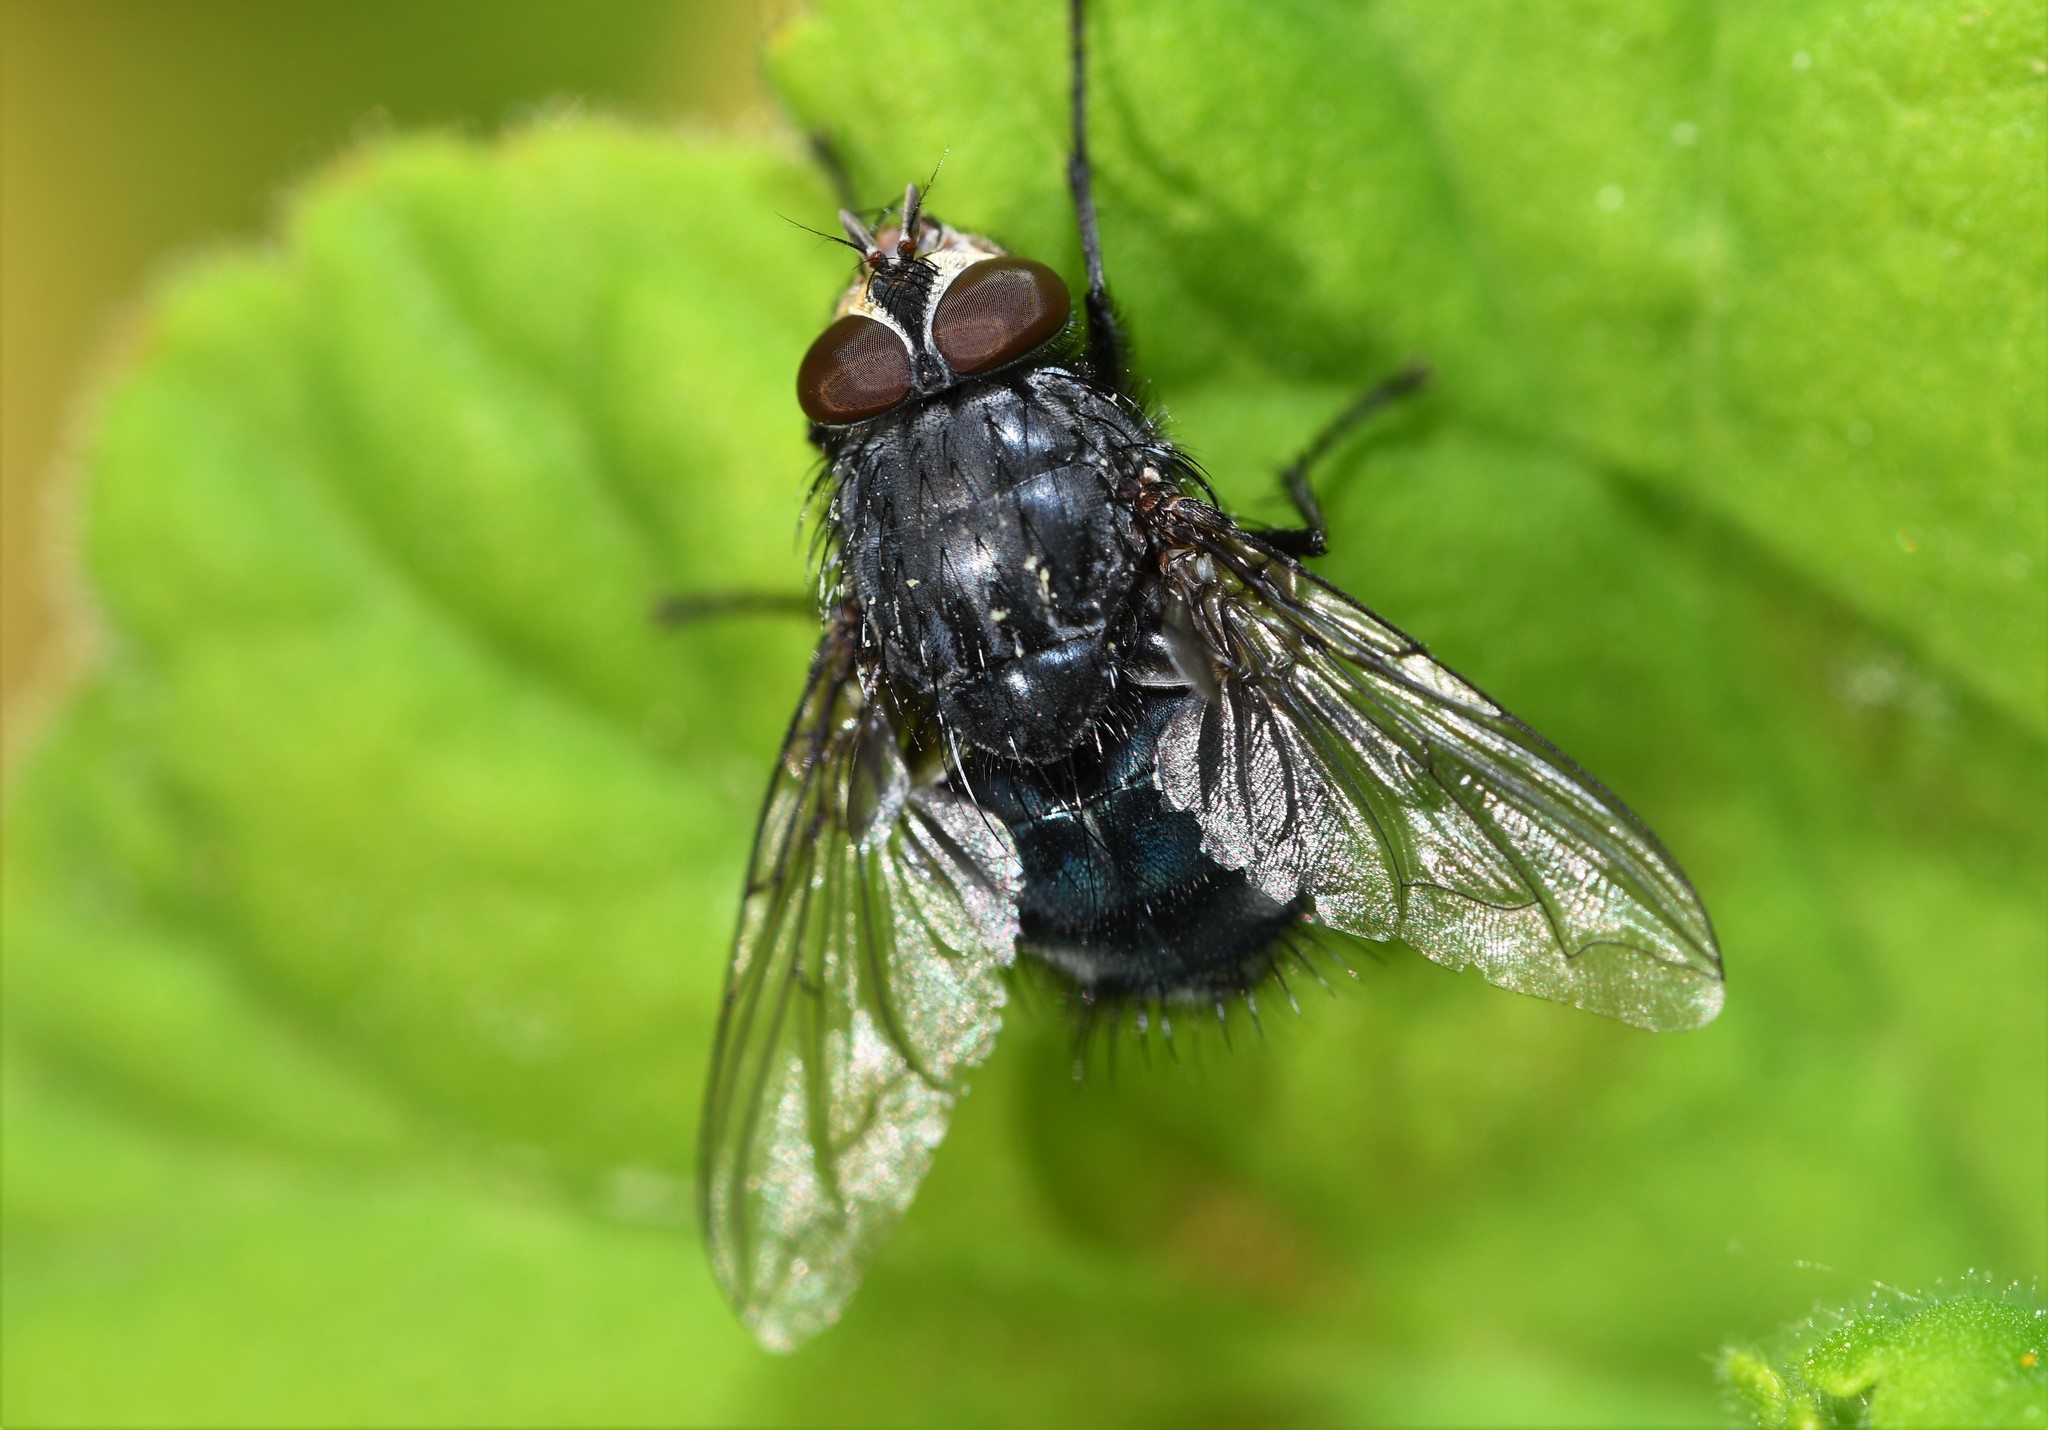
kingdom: Animalia
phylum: Arthropoda
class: Insecta
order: Diptera
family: Calliphoridae
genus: Calliphora
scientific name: Calliphora vicina
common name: Common blow flie
